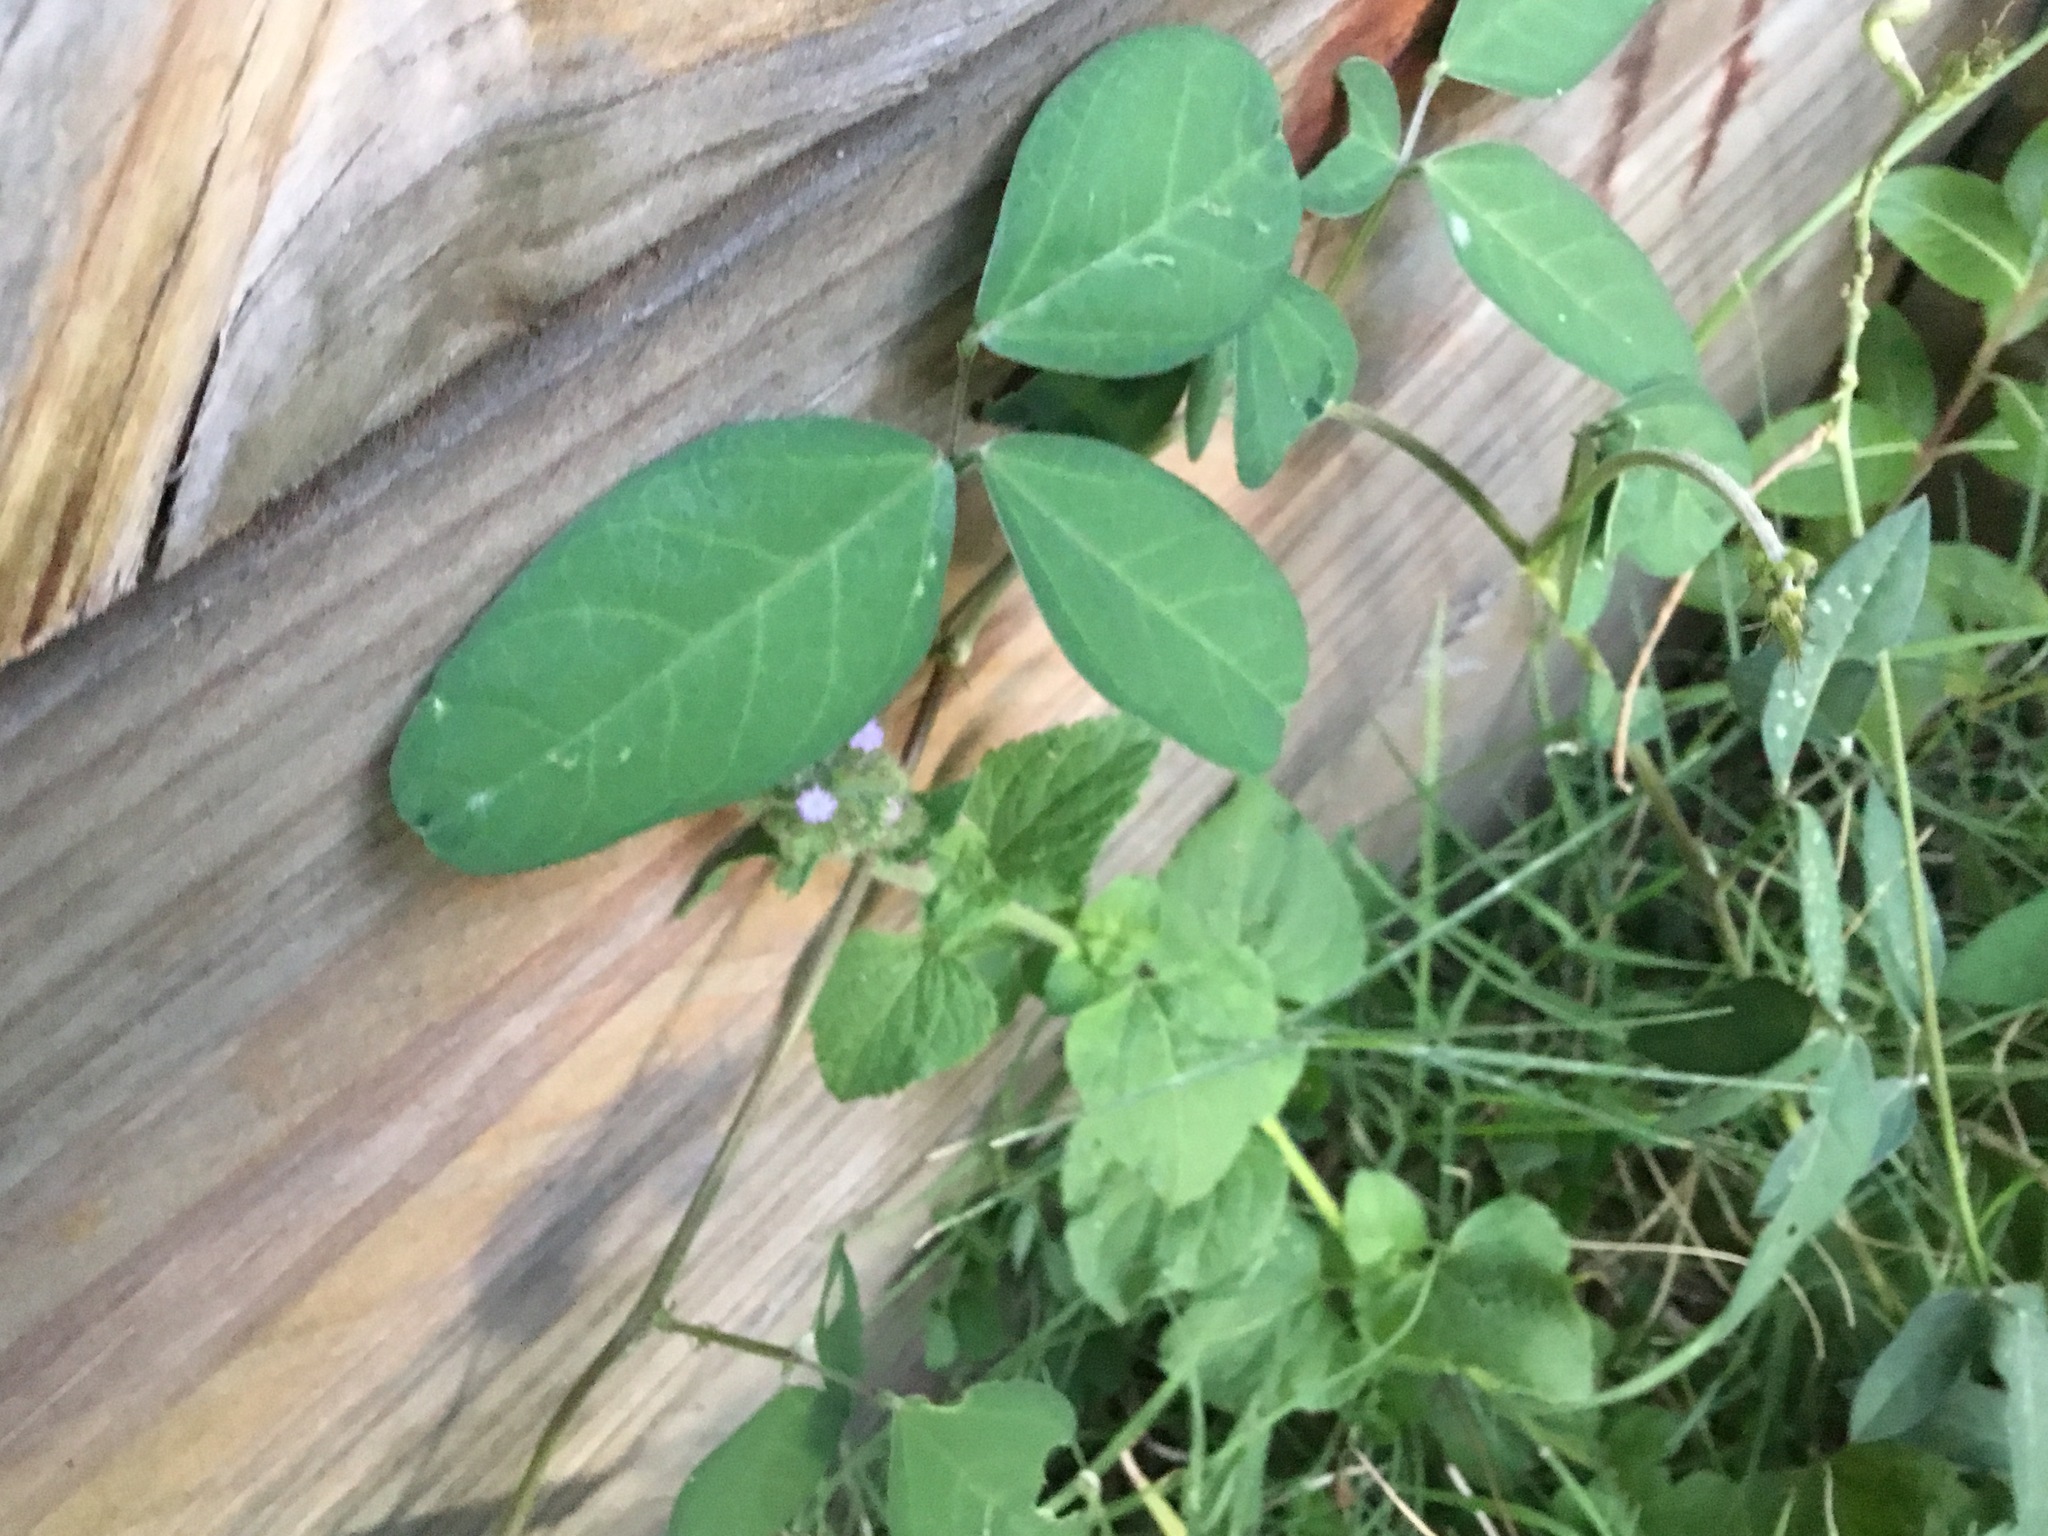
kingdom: Plantae
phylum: Tracheophyta
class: Magnoliopsida
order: Fabales
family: Fabaceae
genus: Macroptilium
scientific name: Macroptilium lathyroides
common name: Wild bushbean
